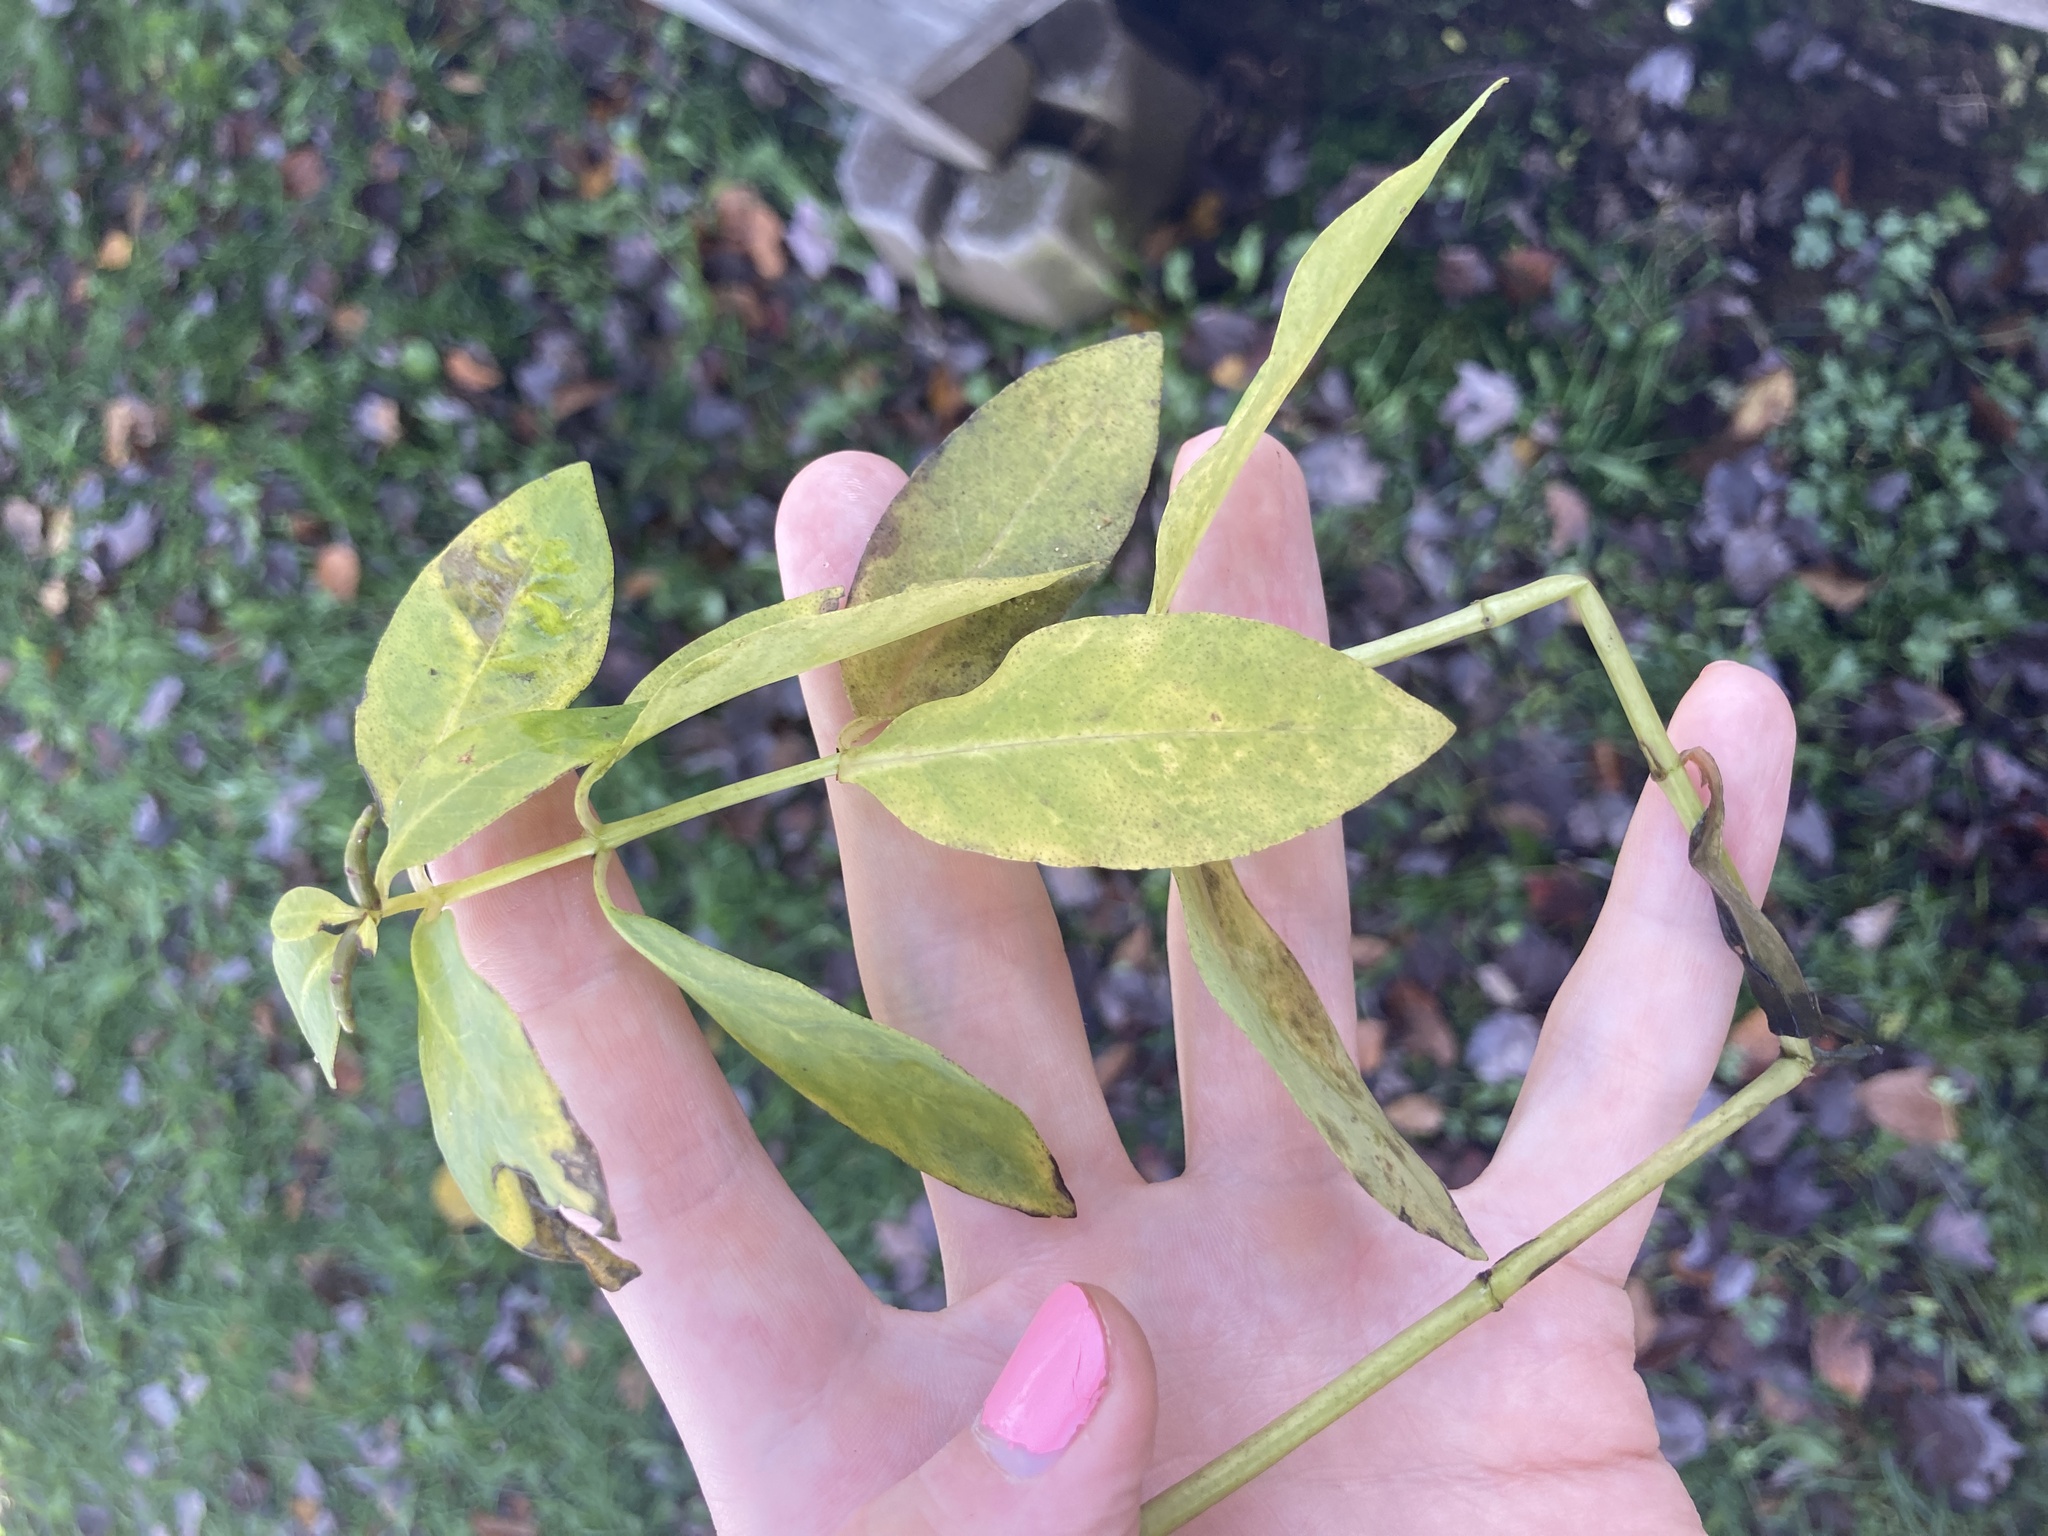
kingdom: Plantae
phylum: Tracheophyta
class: Magnoliopsida
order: Ericales
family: Primulaceae
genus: Lysimachia
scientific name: Lysimachia terrestris
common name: Lake loosestrife
